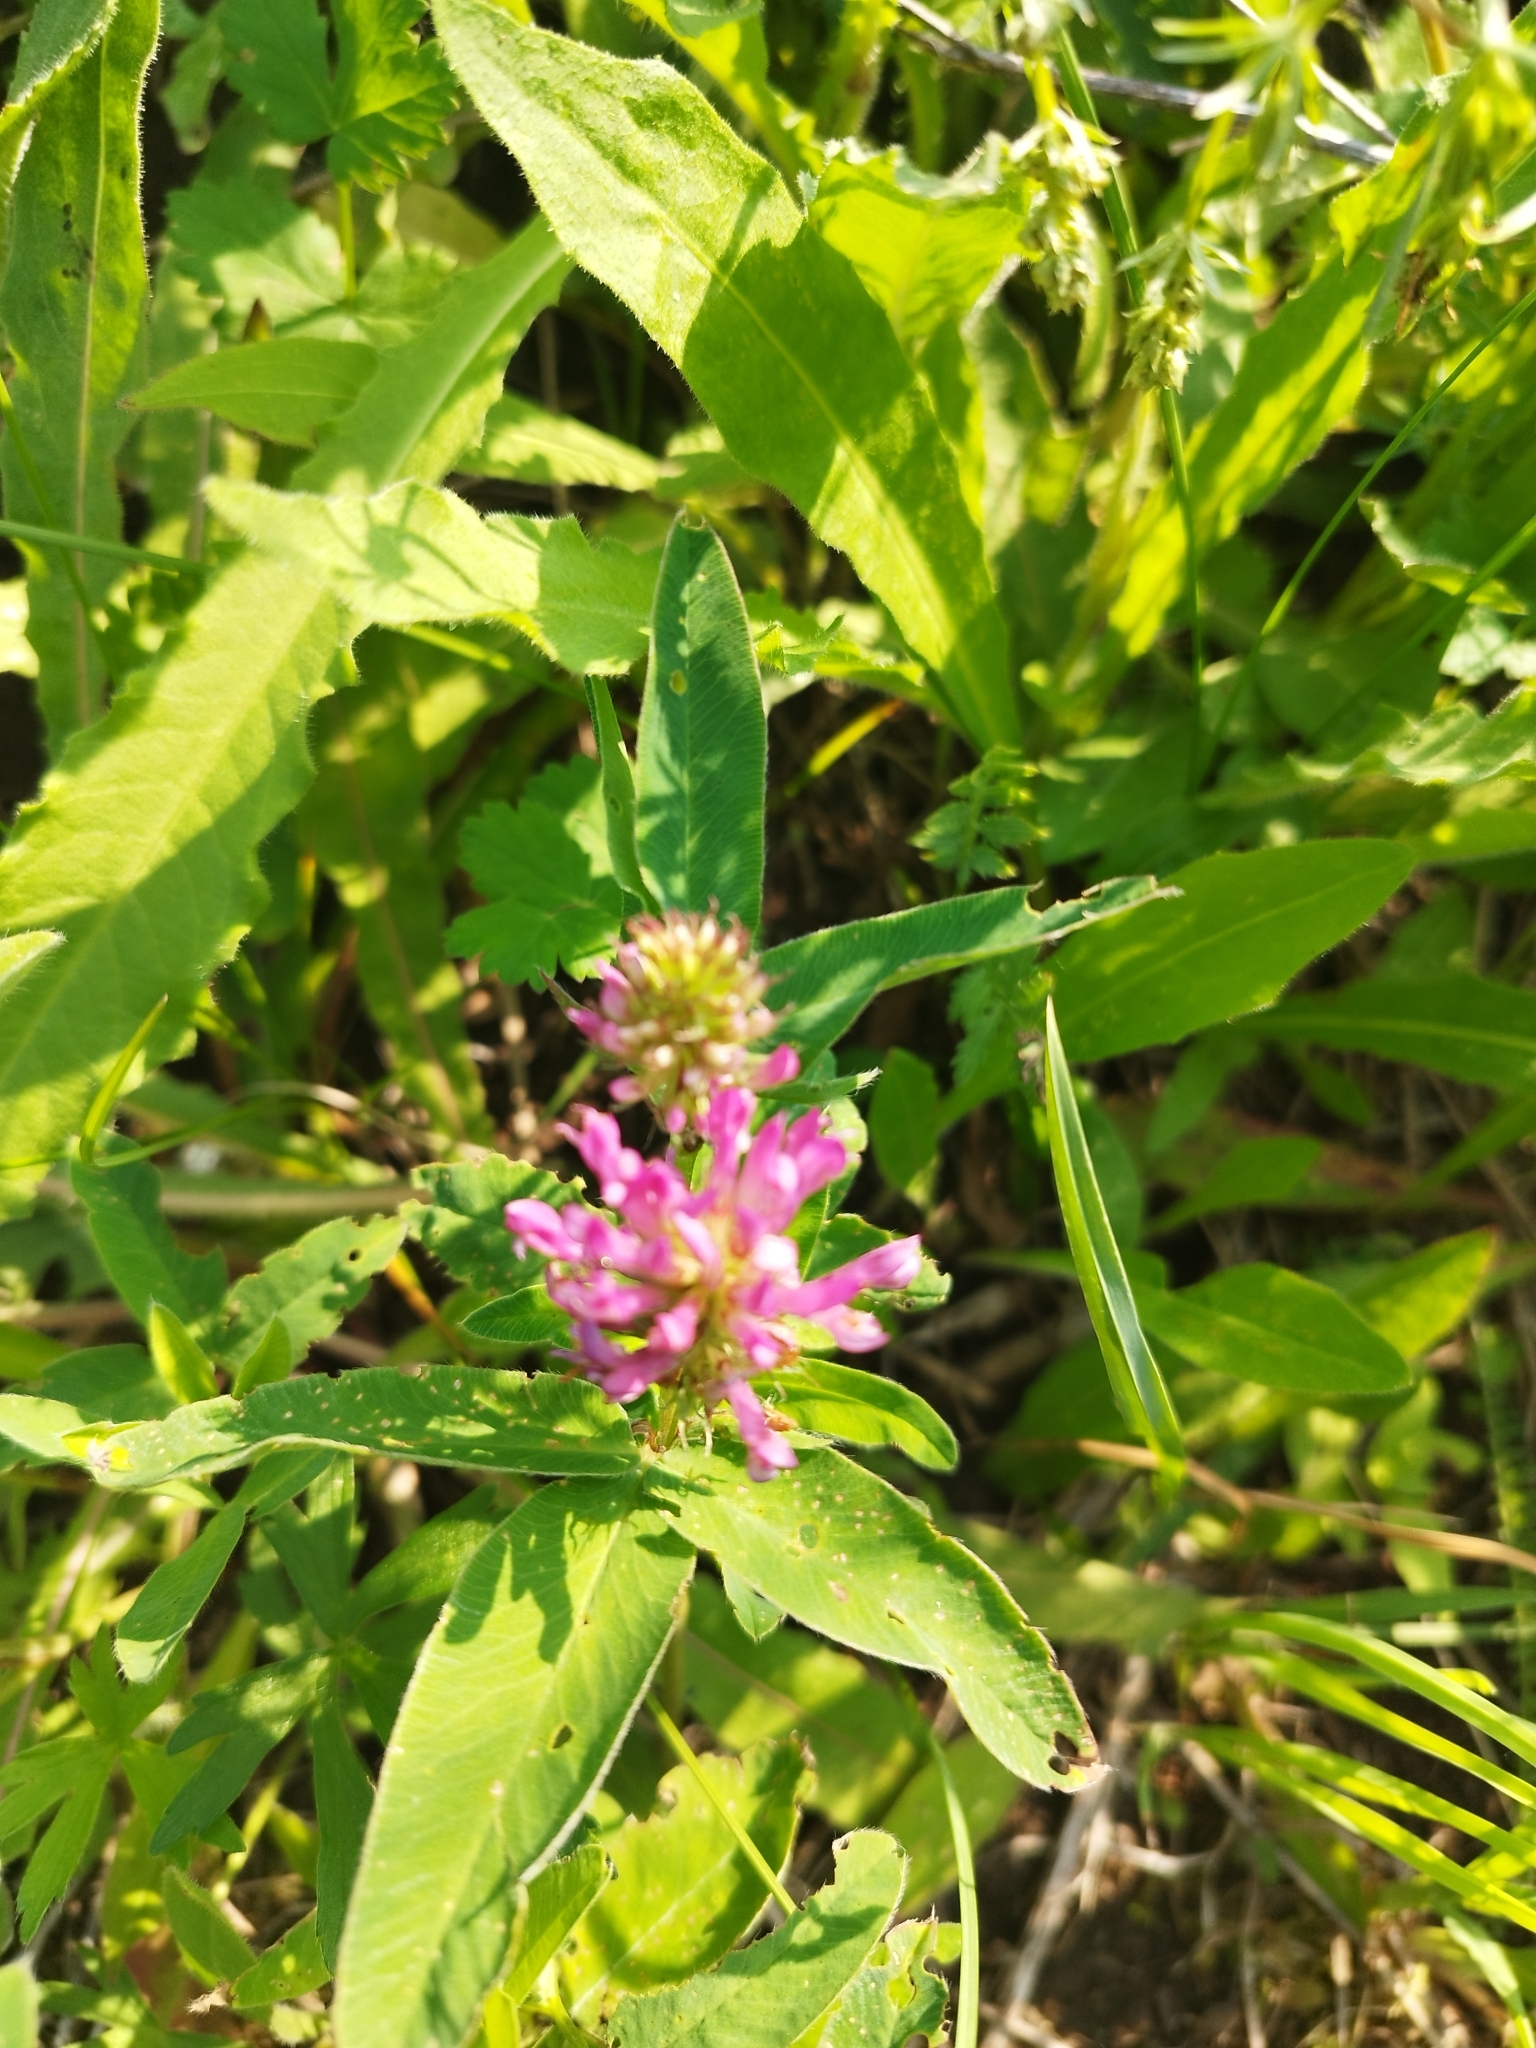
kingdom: Plantae
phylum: Tracheophyta
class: Magnoliopsida
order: Fabales
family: Fabaceae
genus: Trifolium
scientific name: Trifolium medium
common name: Zigzag clover
